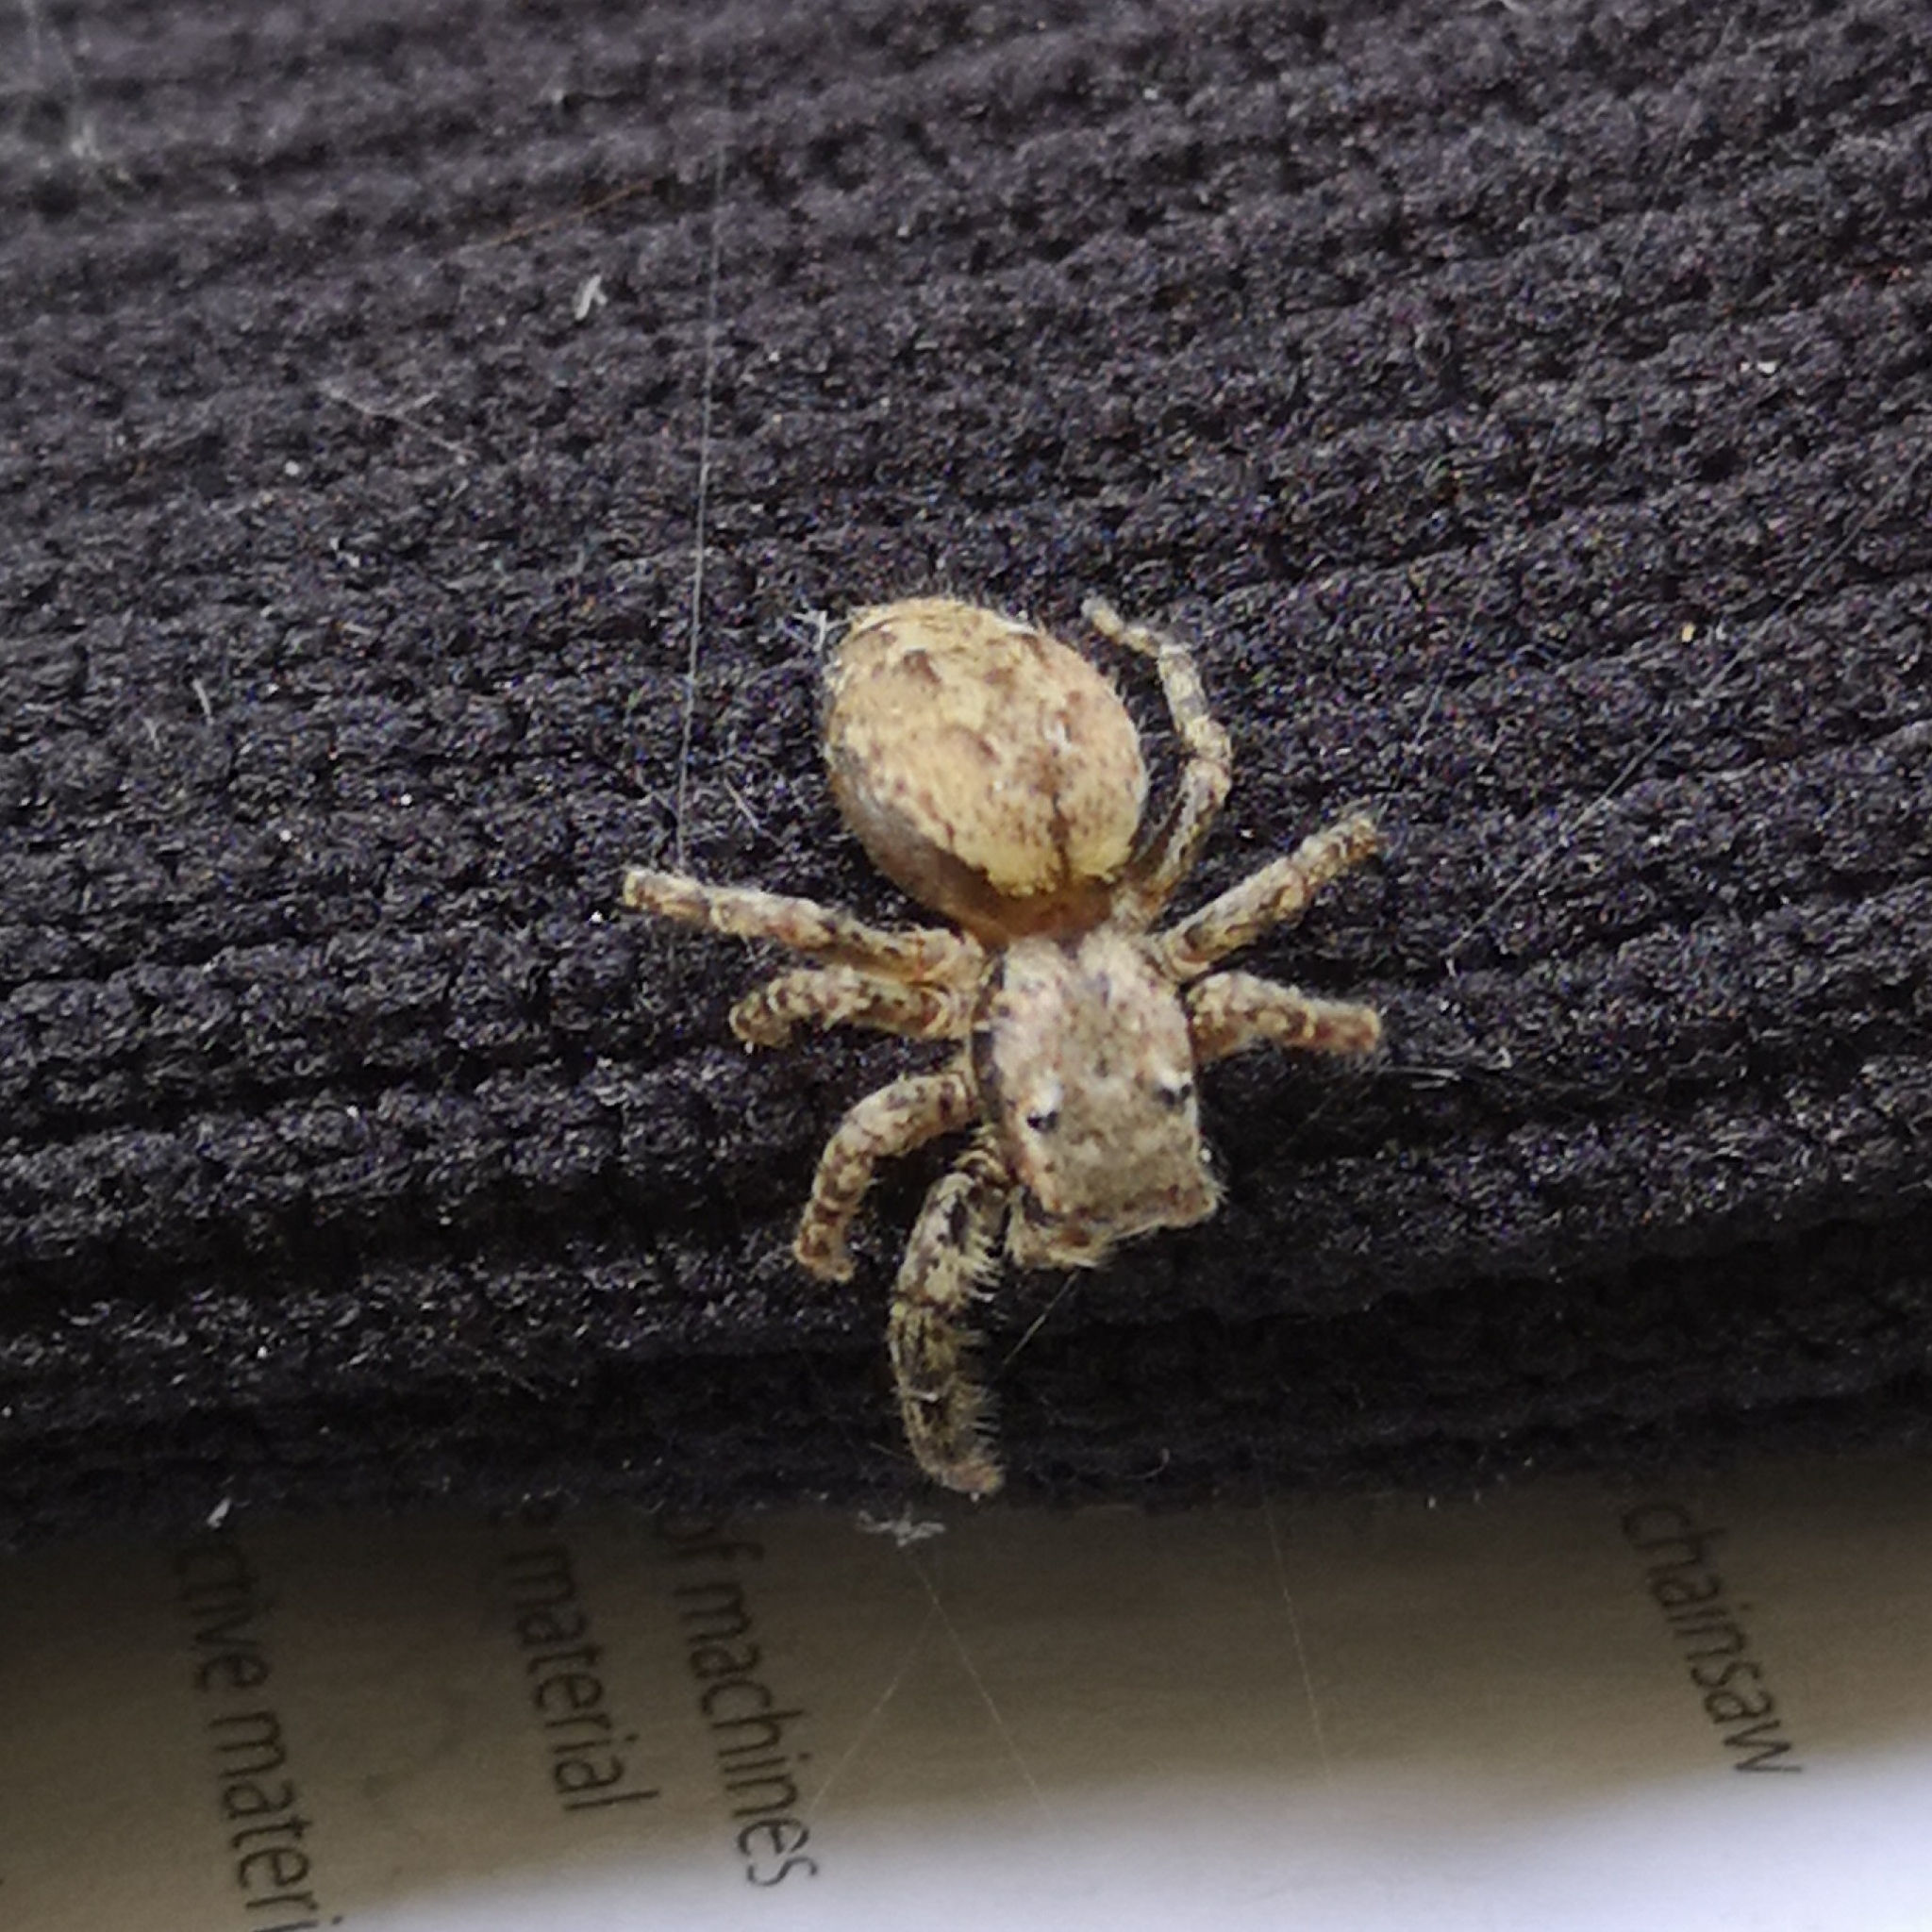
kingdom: Animalia
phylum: Arthropoda
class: Arachnida
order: Araneae
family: Salticidae
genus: Marpissa
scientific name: Marpissa muscosa
